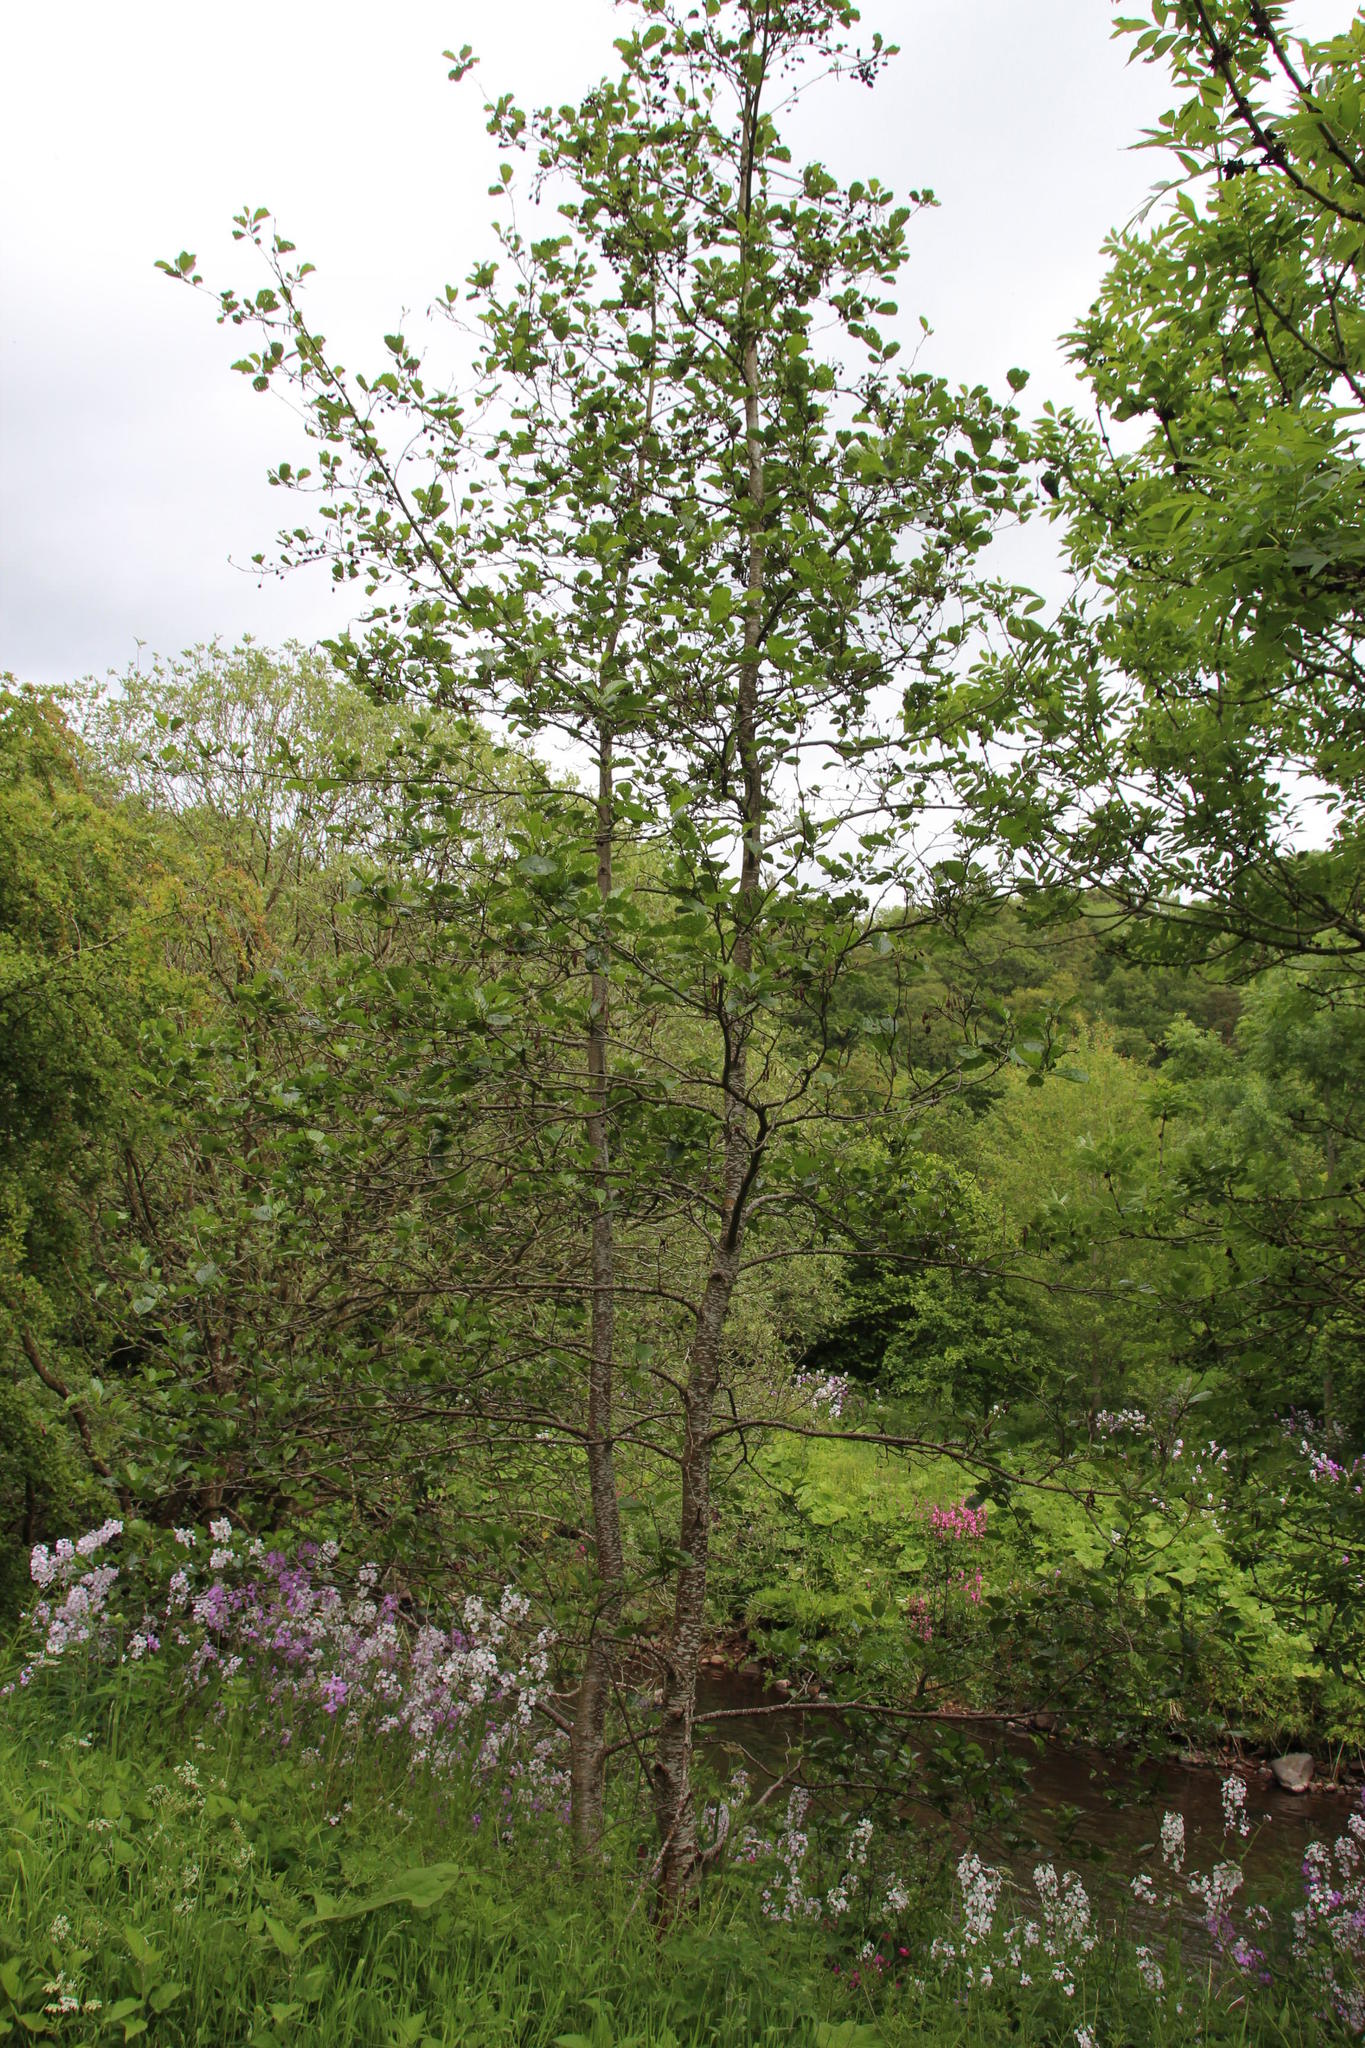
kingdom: Plantae
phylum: Tracheophyta
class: Magnoliopsida
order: Fagales
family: Betulaceae
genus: Alnus
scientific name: Alnus glutinosa
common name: Black alder
